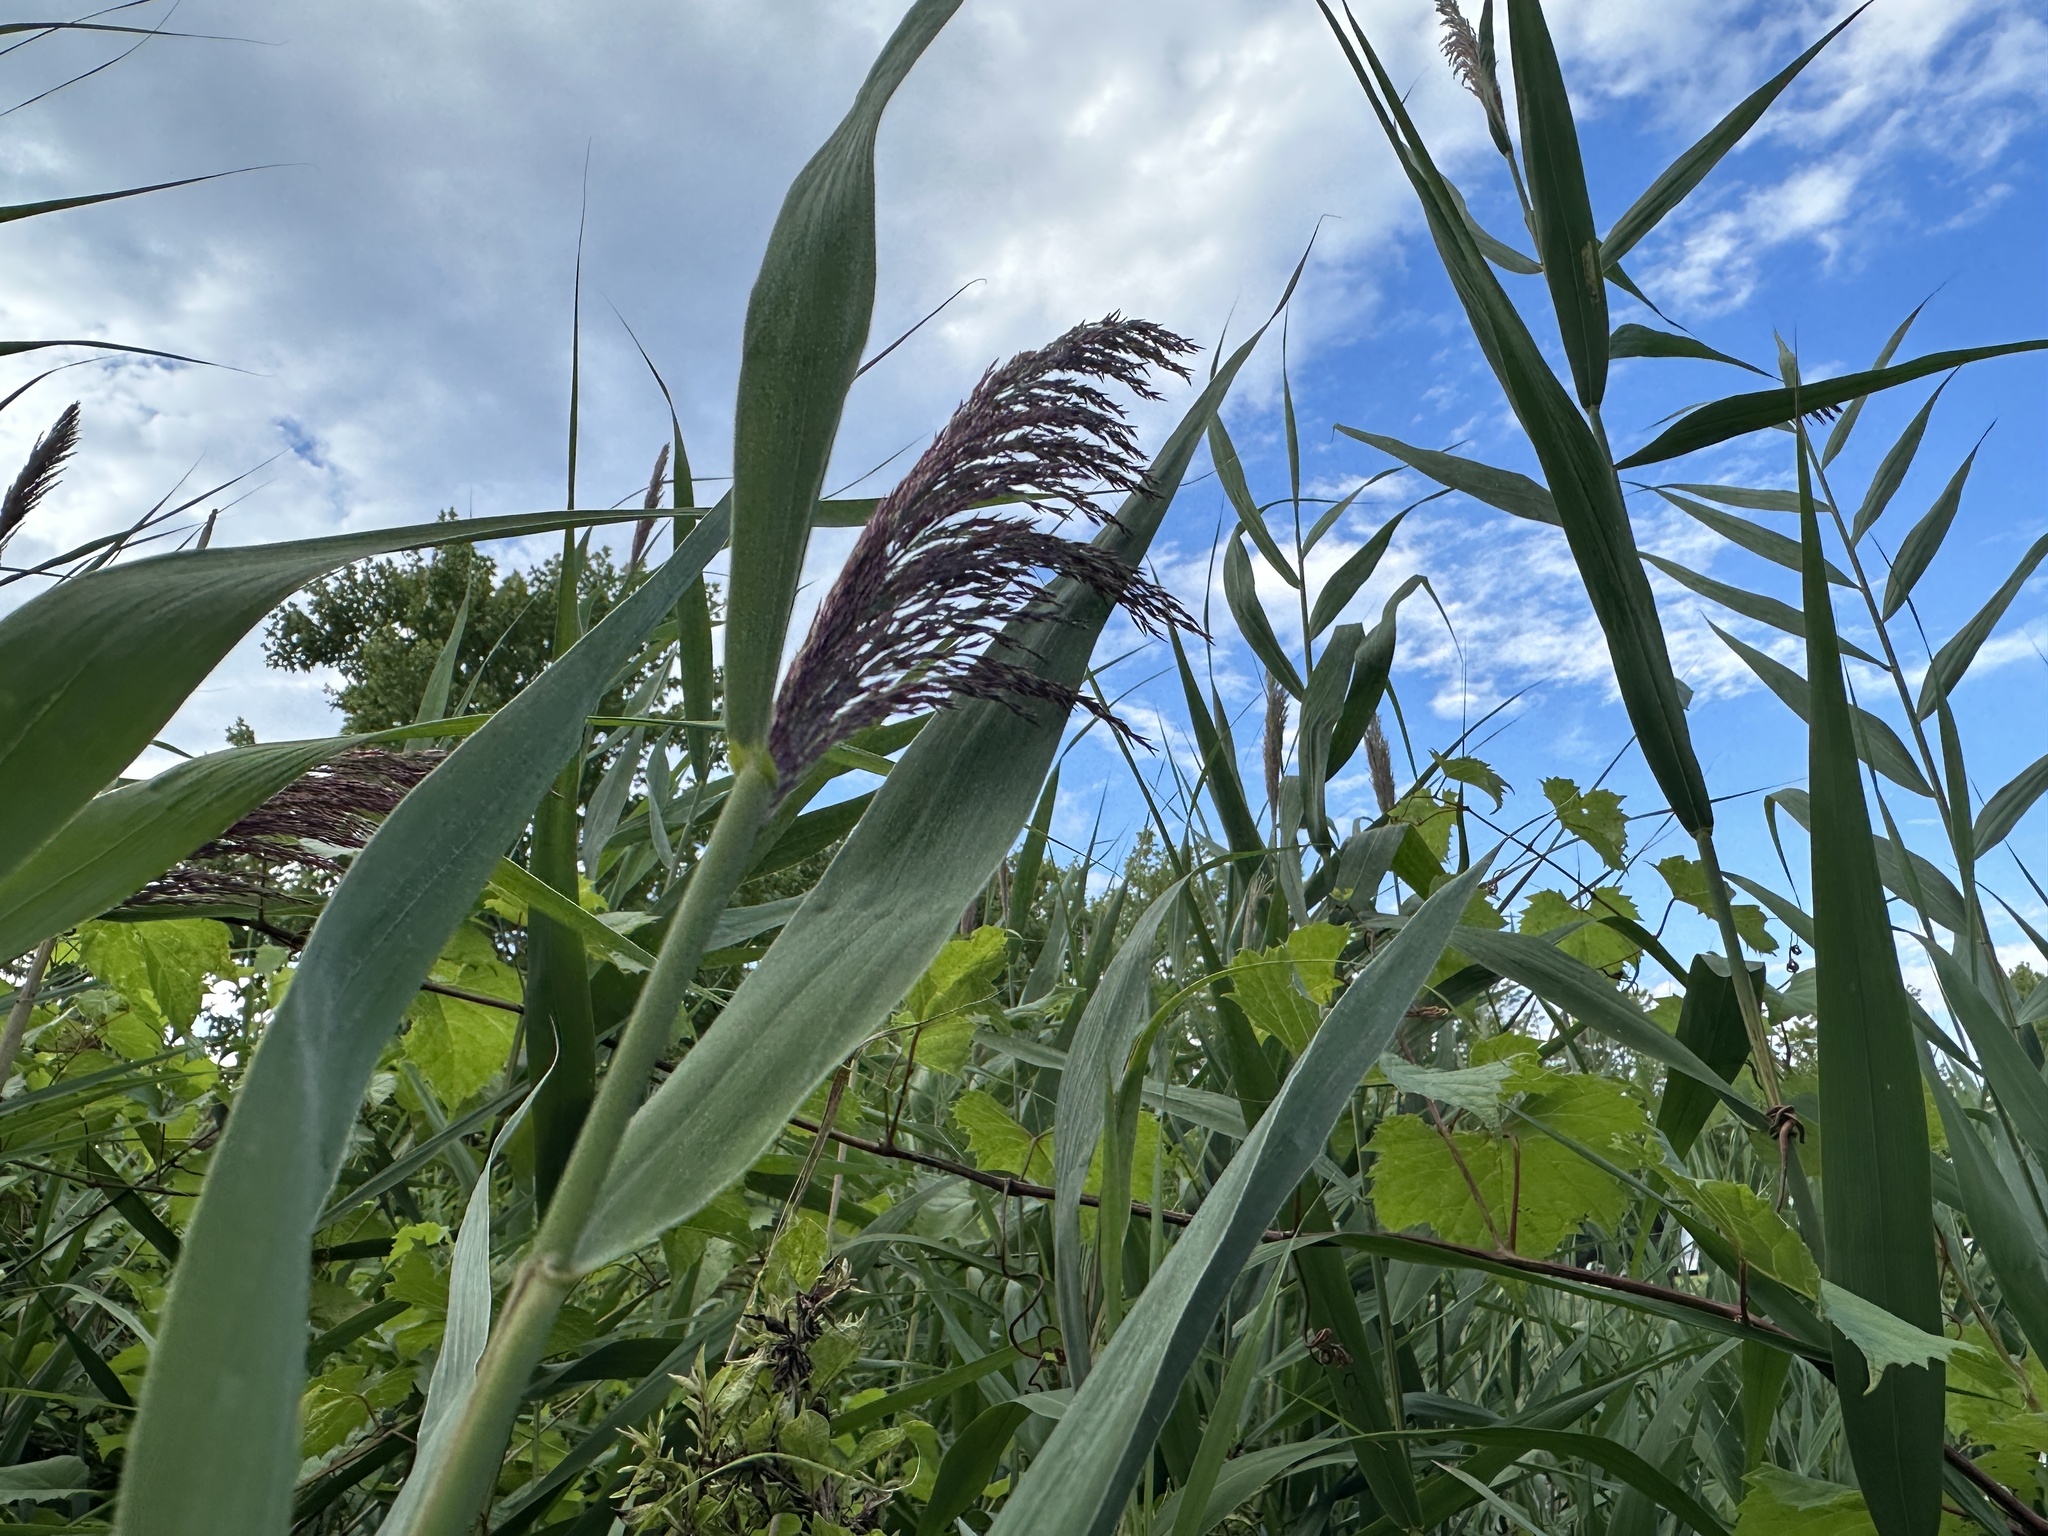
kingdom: Plantae
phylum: Tracheophyta
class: Liliopsida
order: Poales
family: Poaceae
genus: Phragmites
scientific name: Phragmites australis
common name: Common reed
